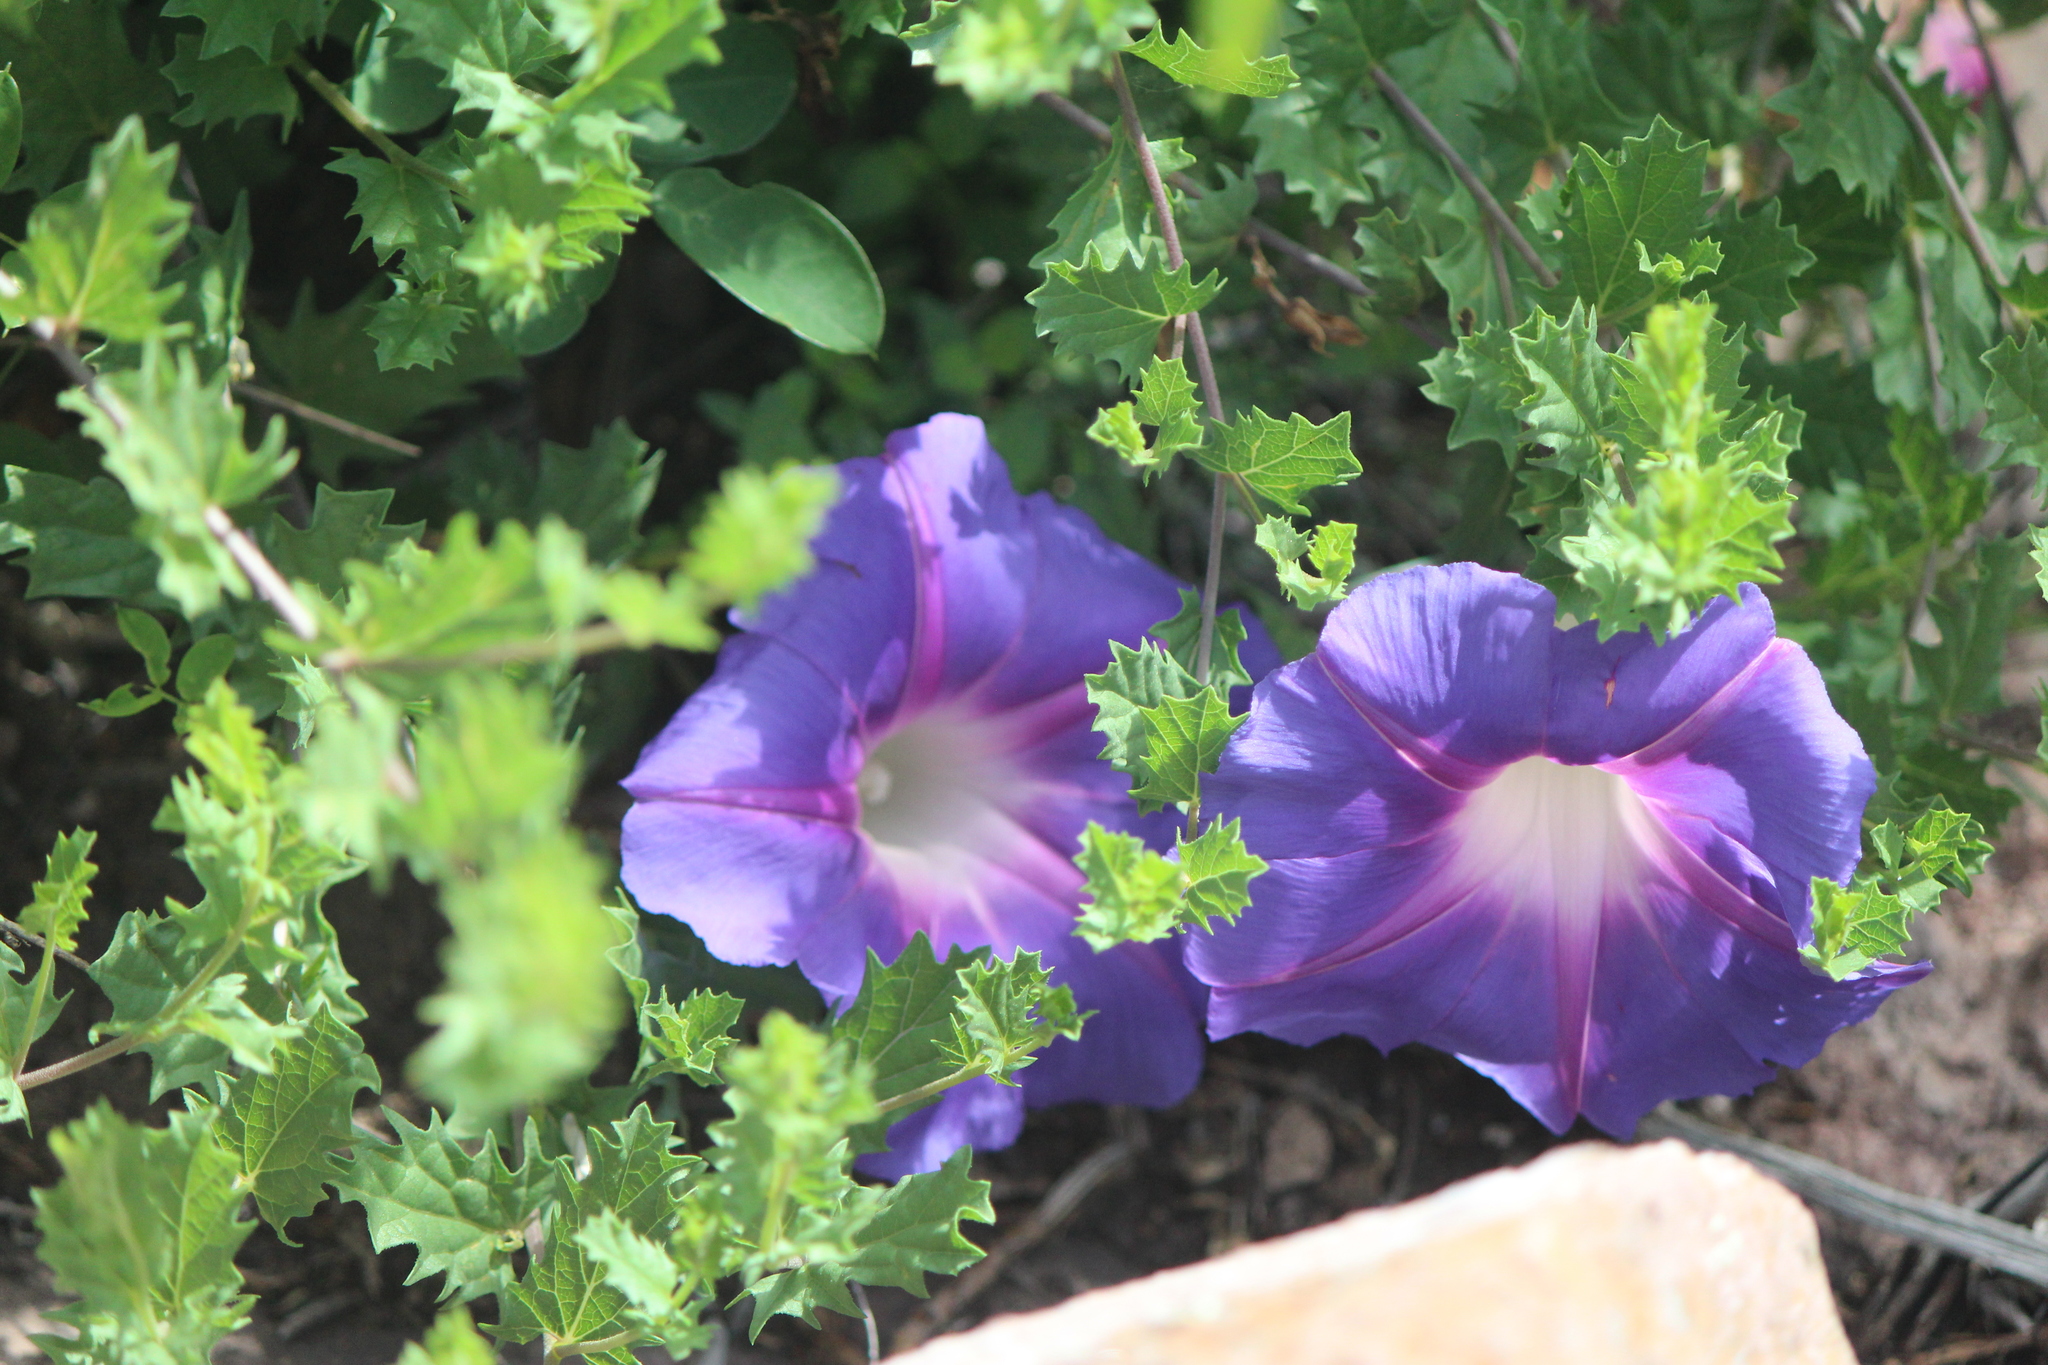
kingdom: Plantae
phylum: Tracheophyta
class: Magnoliopsida
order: Solanales
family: Convolvulaceae
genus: Ipomoea
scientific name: Ipomoea stans
